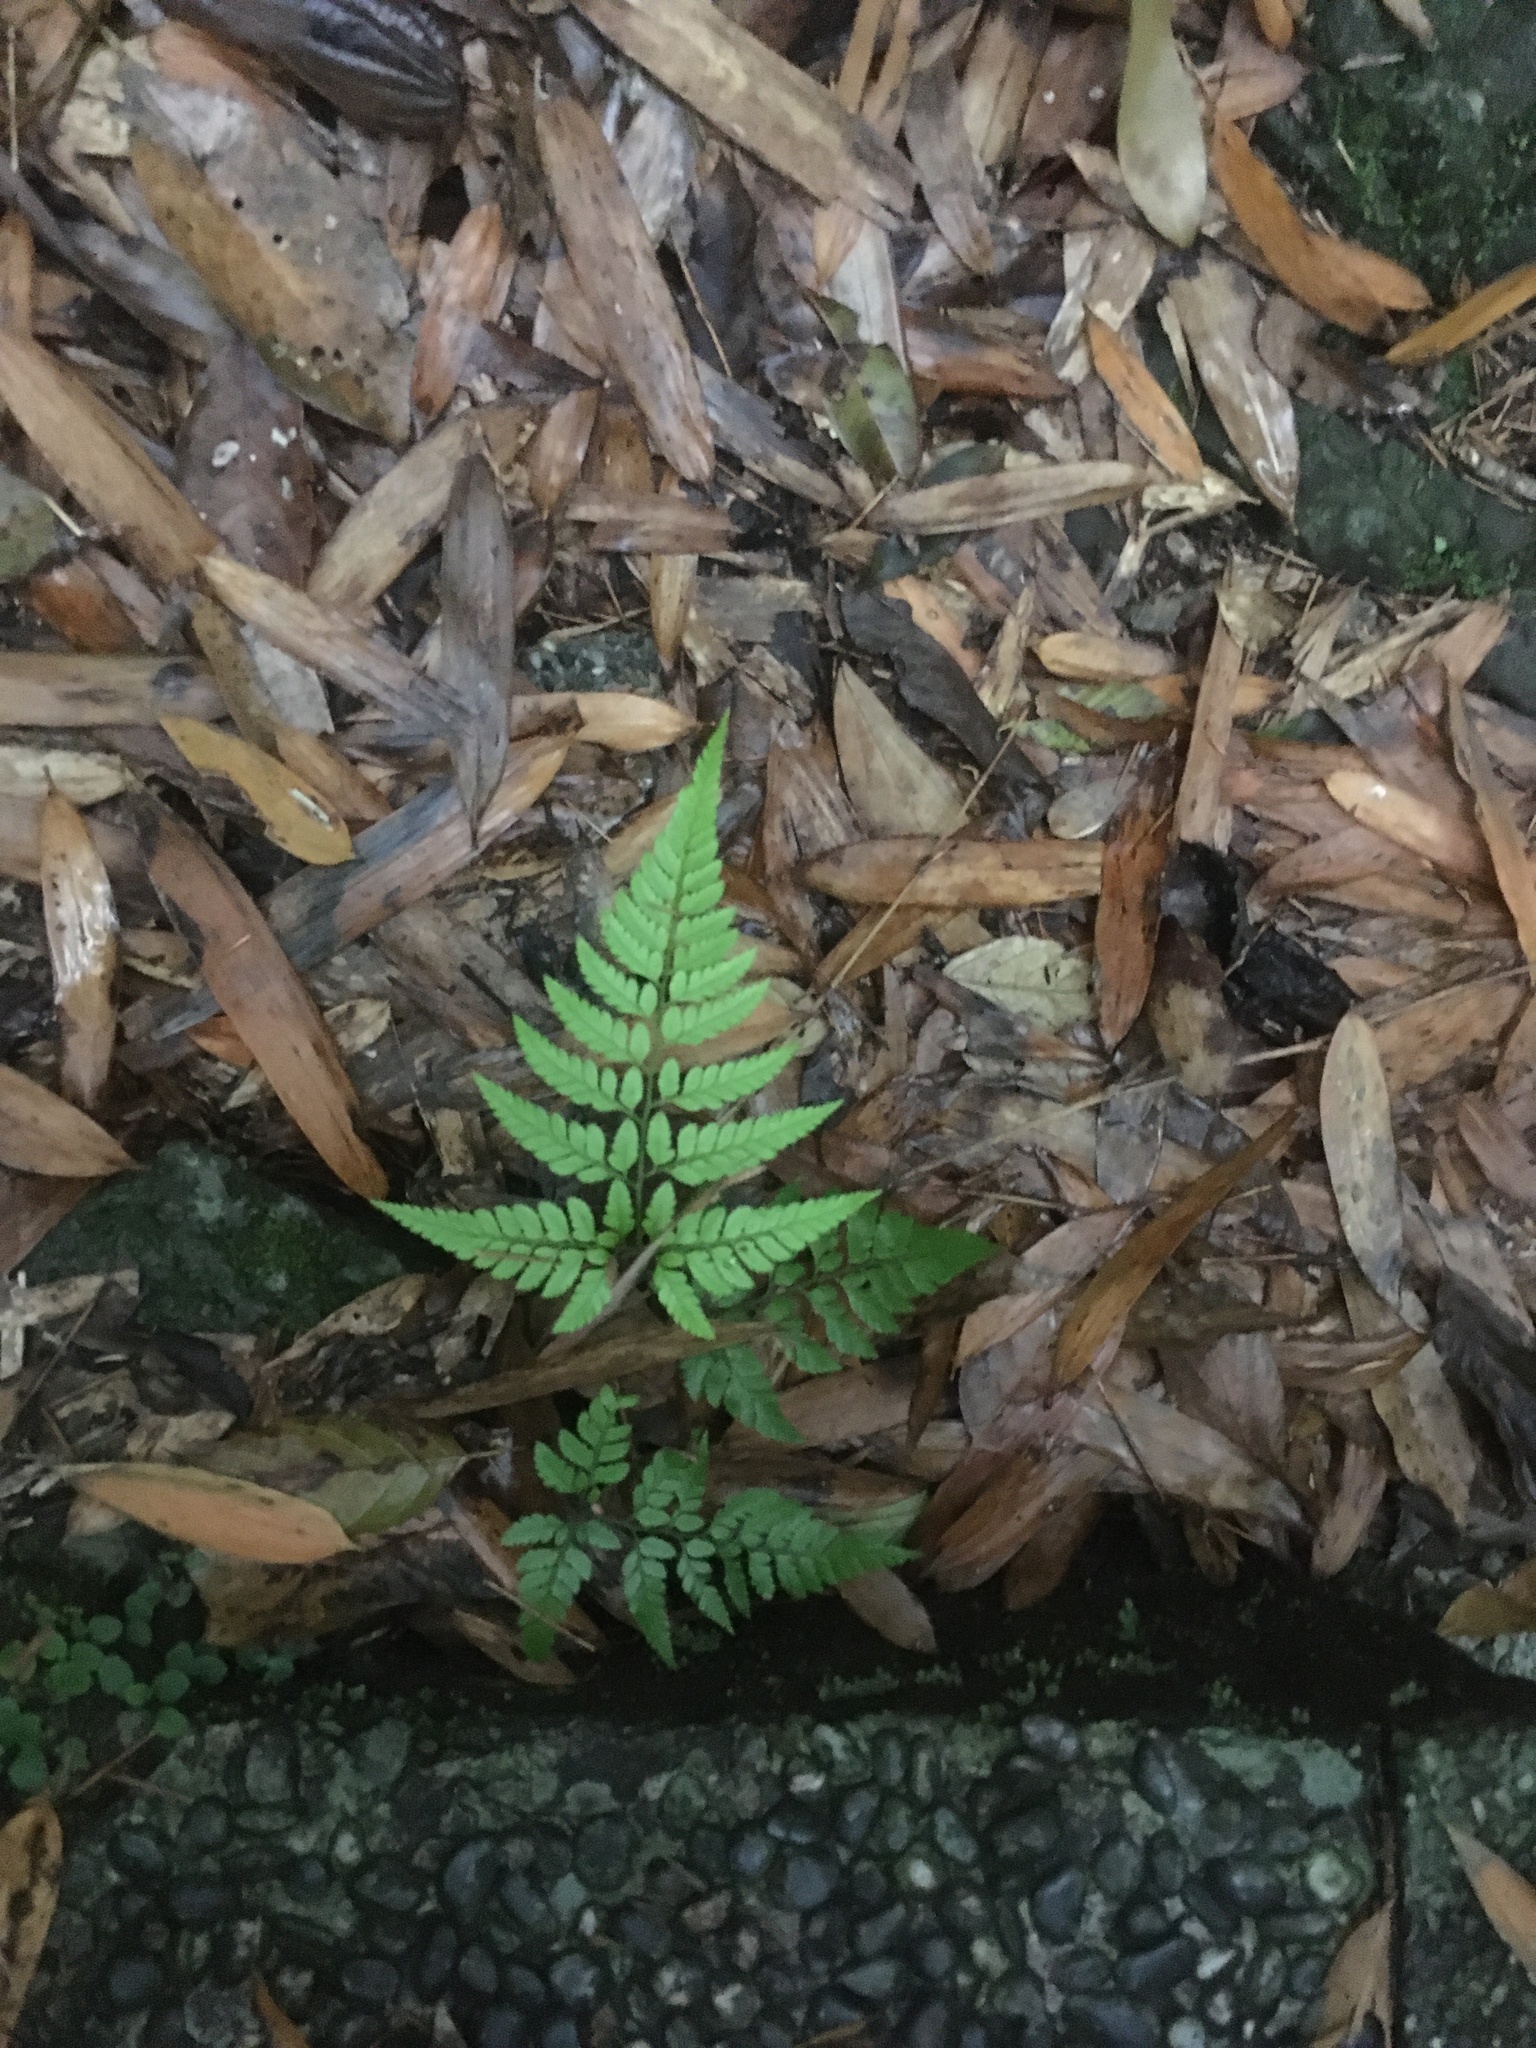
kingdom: Plantae
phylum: Tracheophyta
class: Polypodiopsida
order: Polypodiales
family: Dryopteridaceae
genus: Arachniodes
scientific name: Arachniodes pseudoaristata
